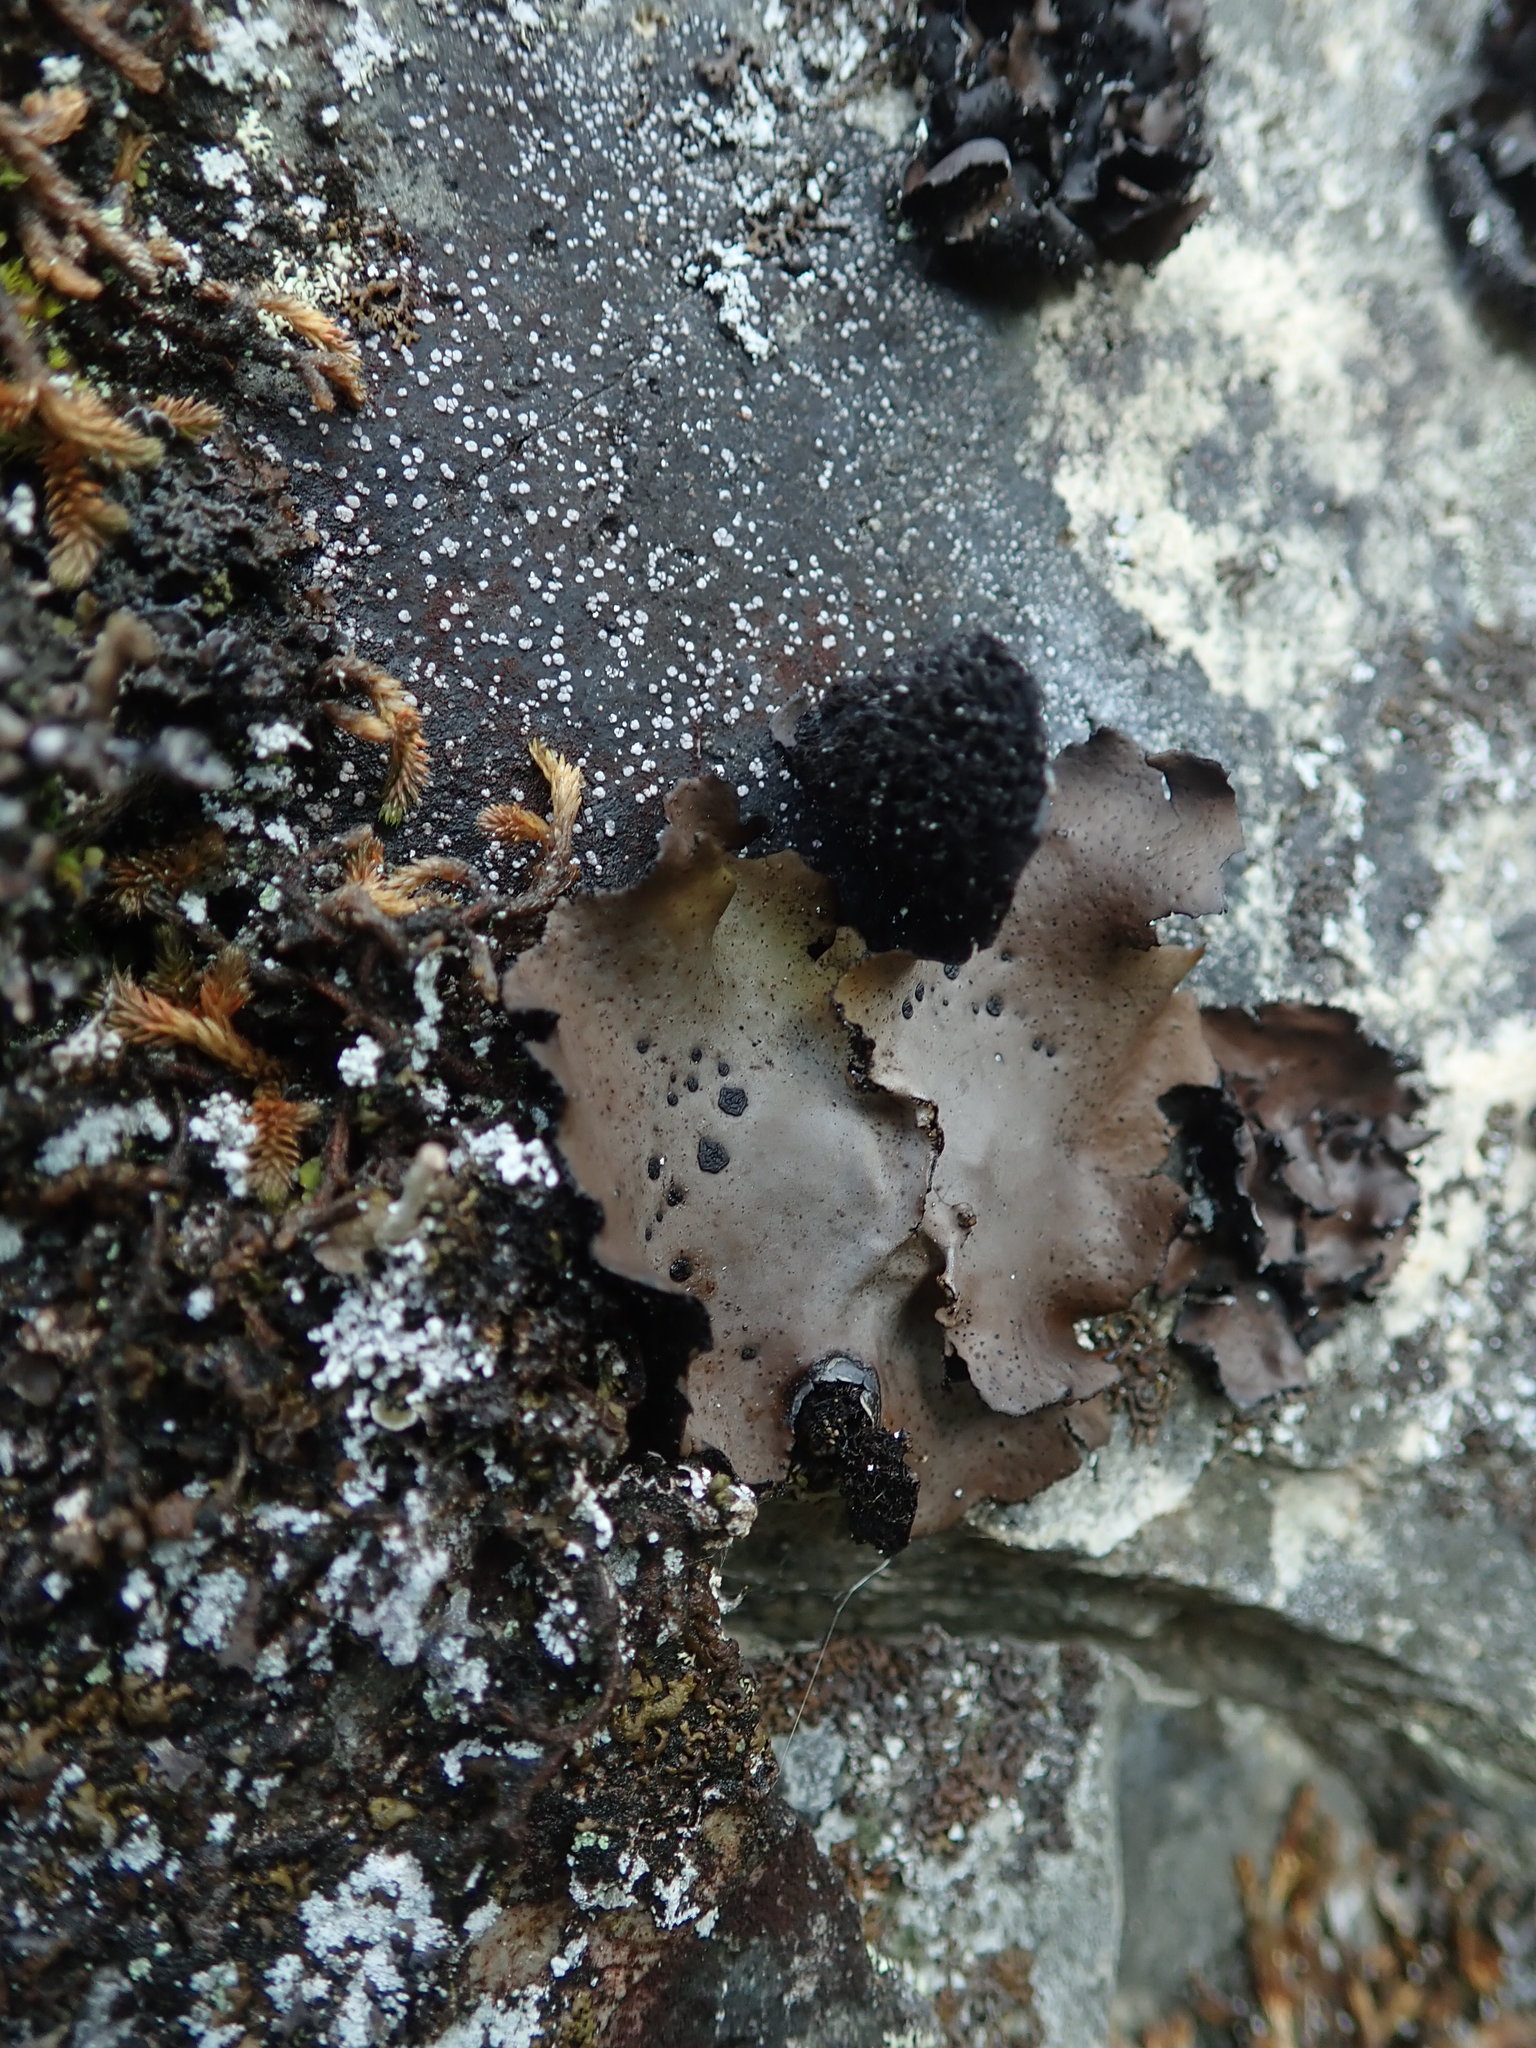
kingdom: Fungi
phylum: Ascomycota
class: Lecanoromycetes
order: Umbilicariales
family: Umbilicariaceae
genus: Umbilicaria
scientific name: Umbilicaria phaea
